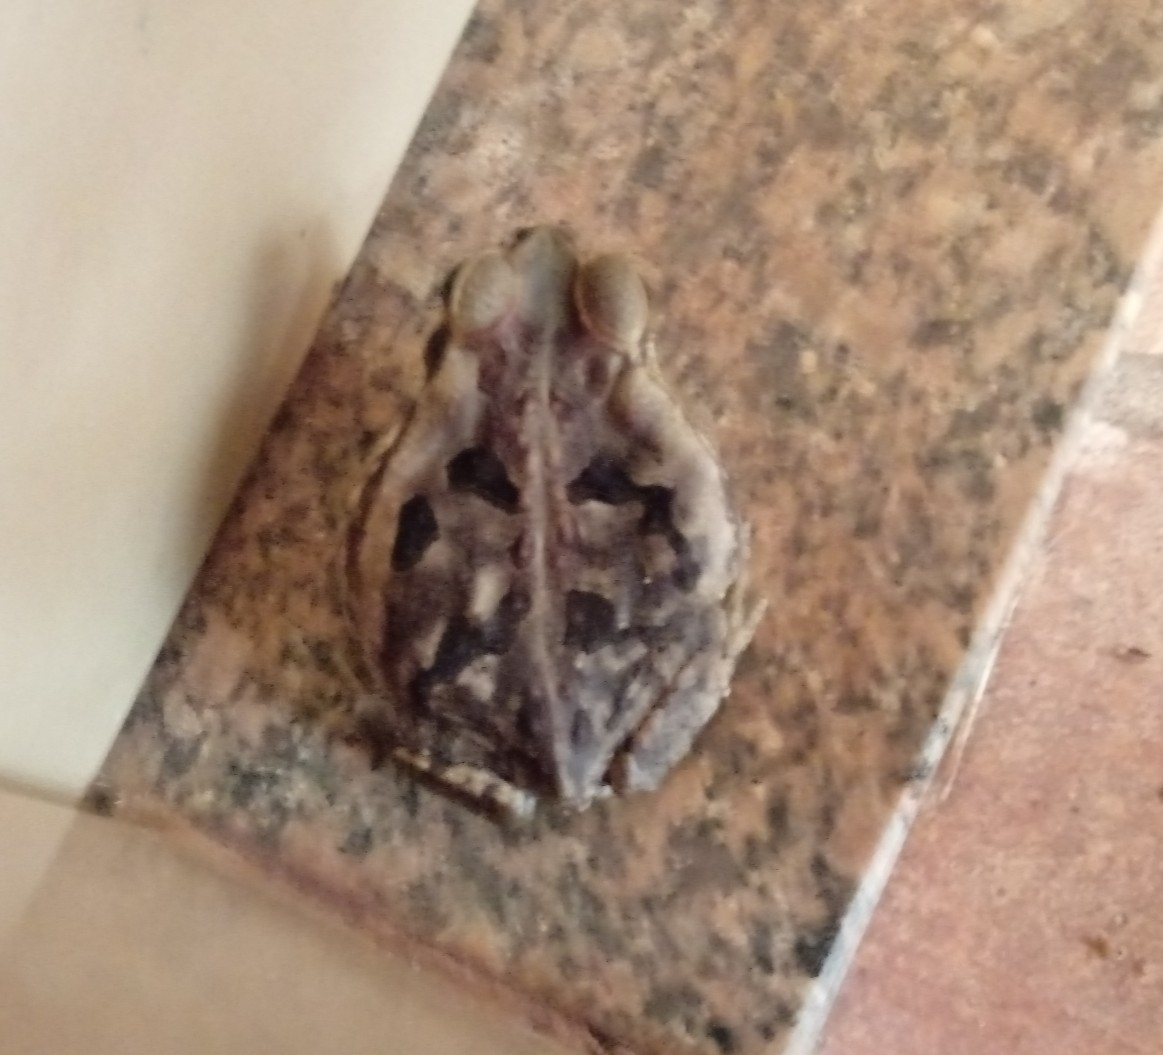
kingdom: Animalia
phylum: Chordata
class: Amphibia
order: Anura
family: Bufonidae
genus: Rhinella
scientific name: Rhinella diptycha
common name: Cope's toad
